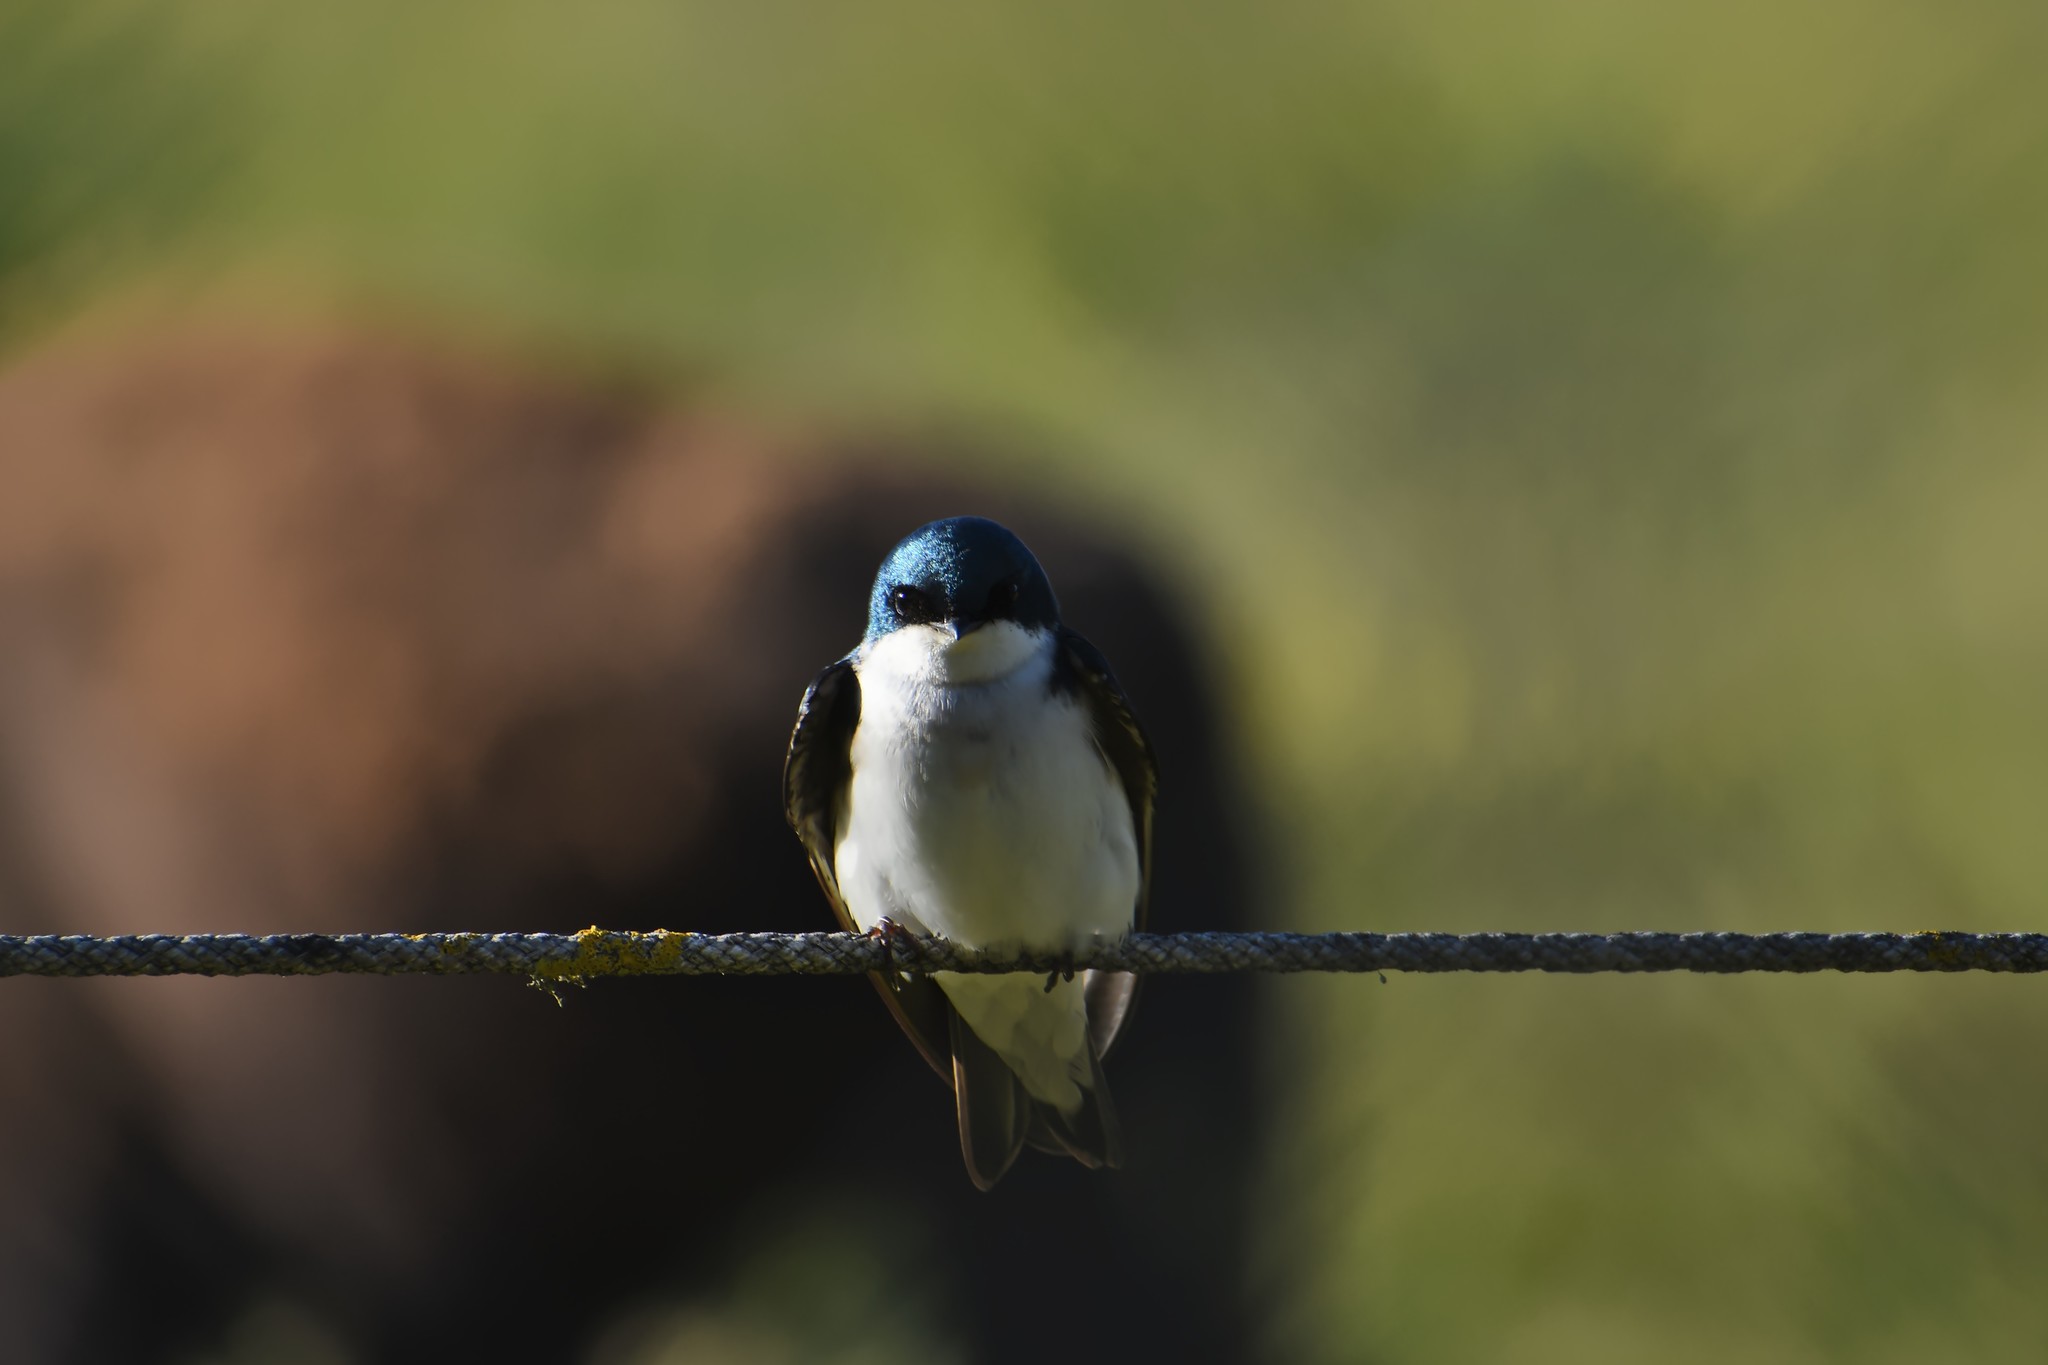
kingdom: Animalia
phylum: Chordata
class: Aves
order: Passeriformes
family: Hirundinidae
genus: Tachycineta
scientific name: Tachycineta bicolor
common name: Tree swallow
